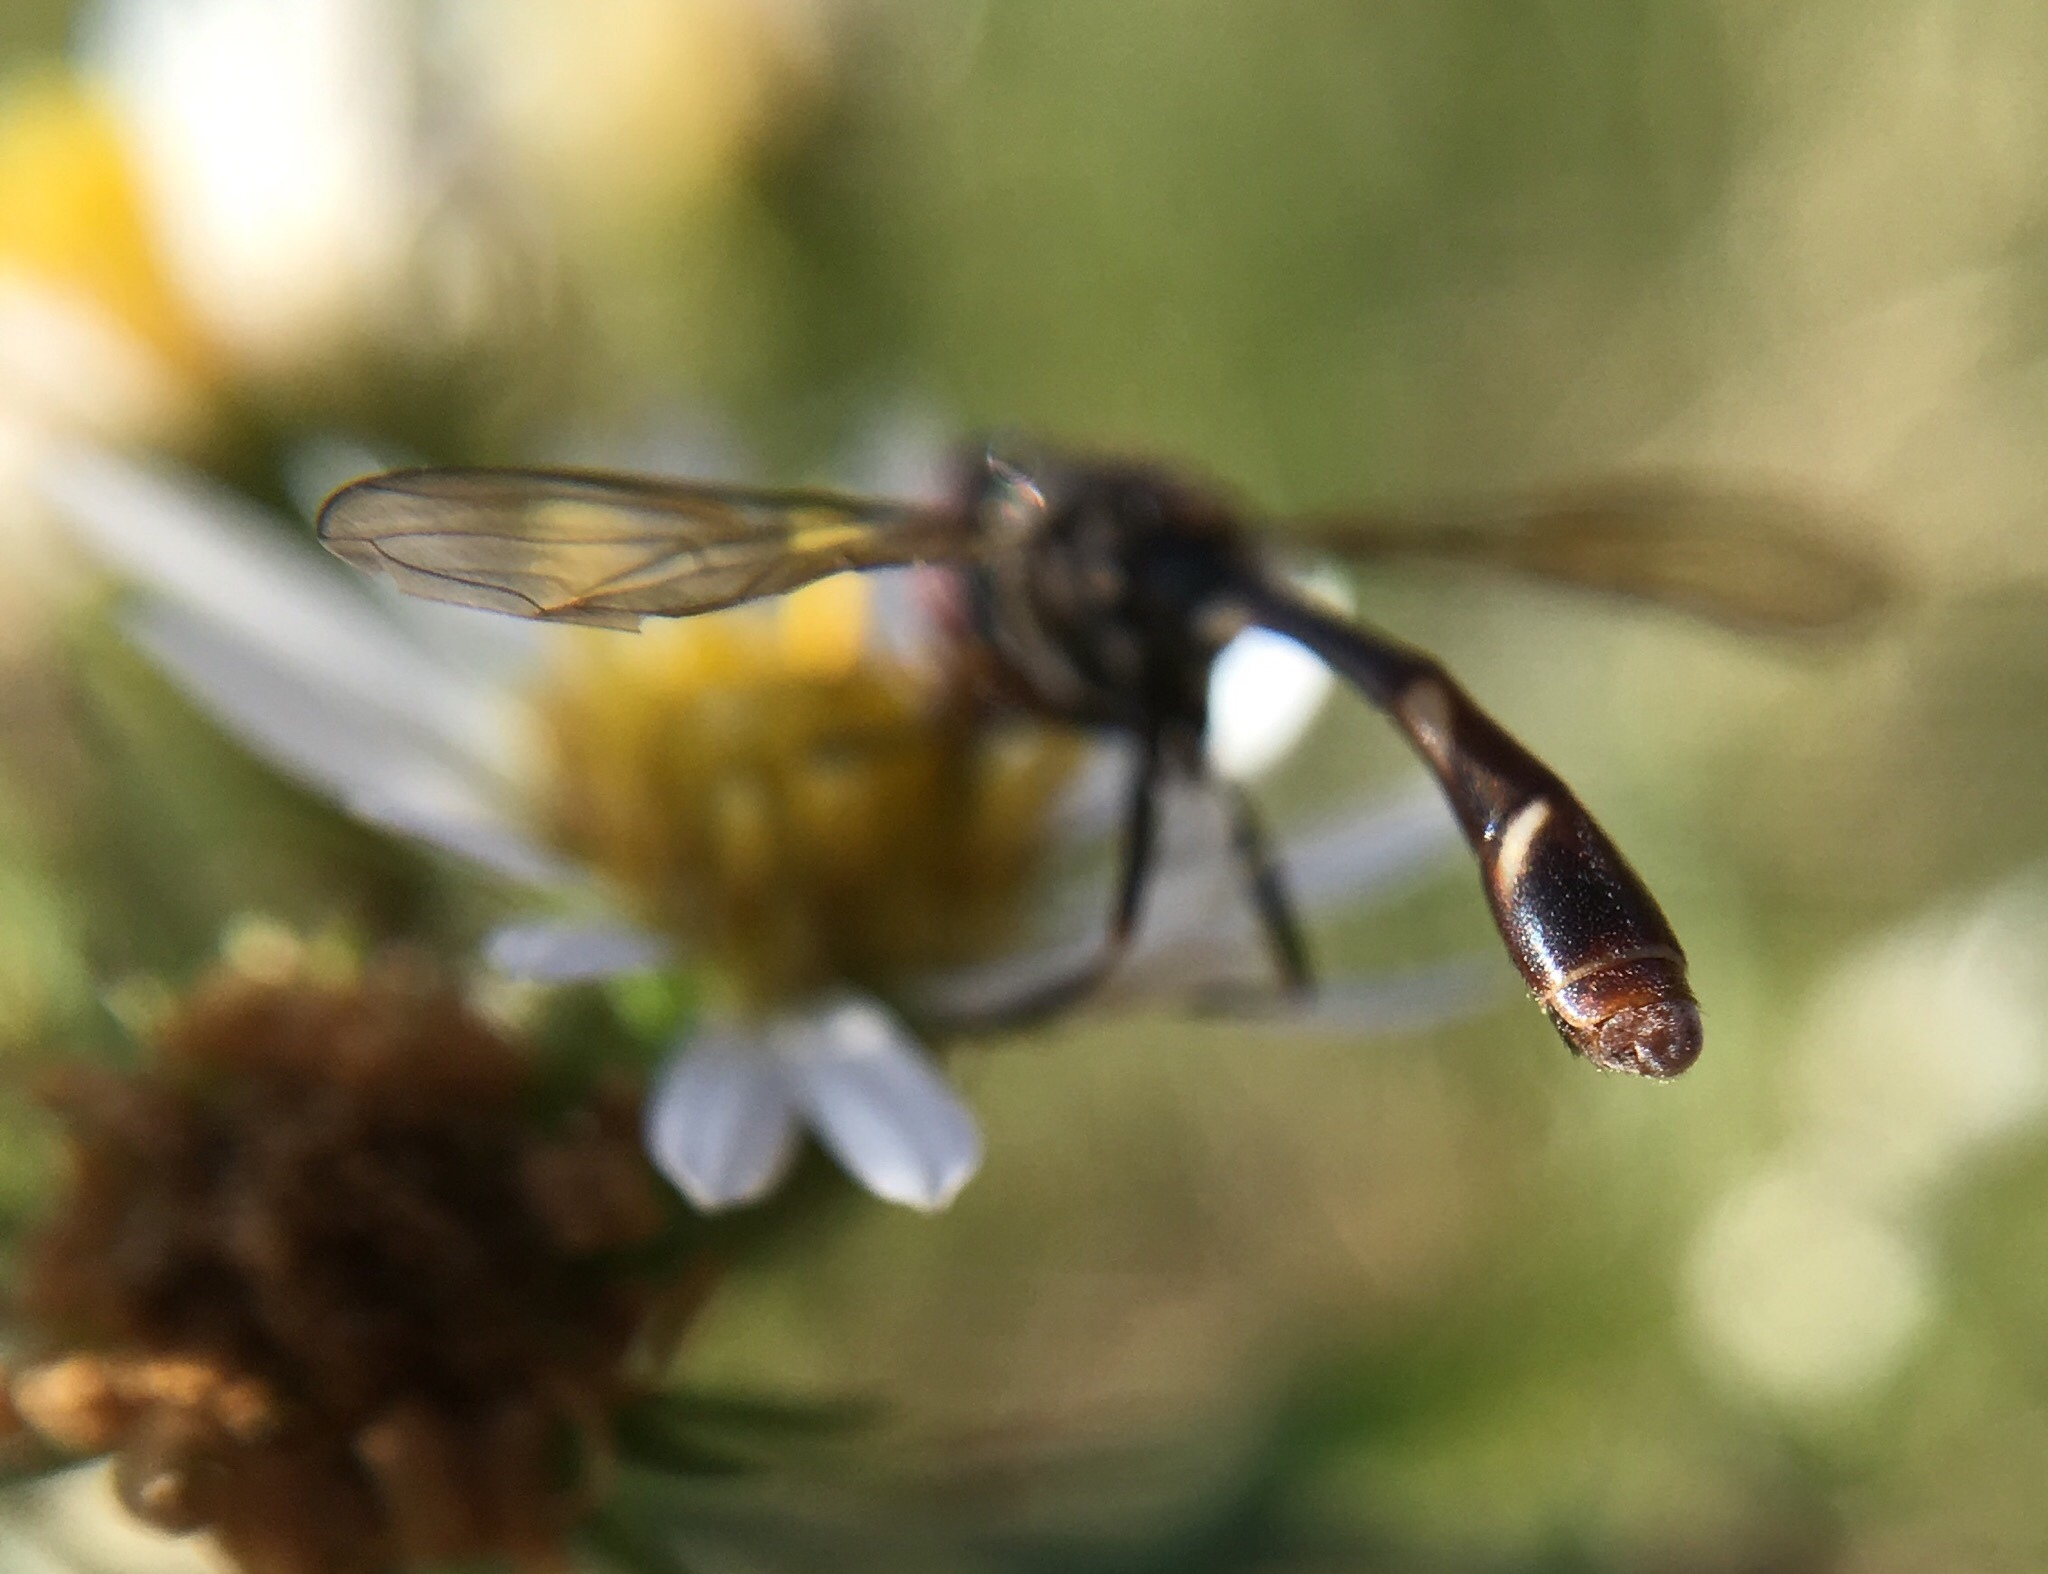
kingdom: Animalia
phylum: Arthropoda
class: Insecta
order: Diptera
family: Syrphidae
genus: Dioprosopa
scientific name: Dioprosopa clavatus
